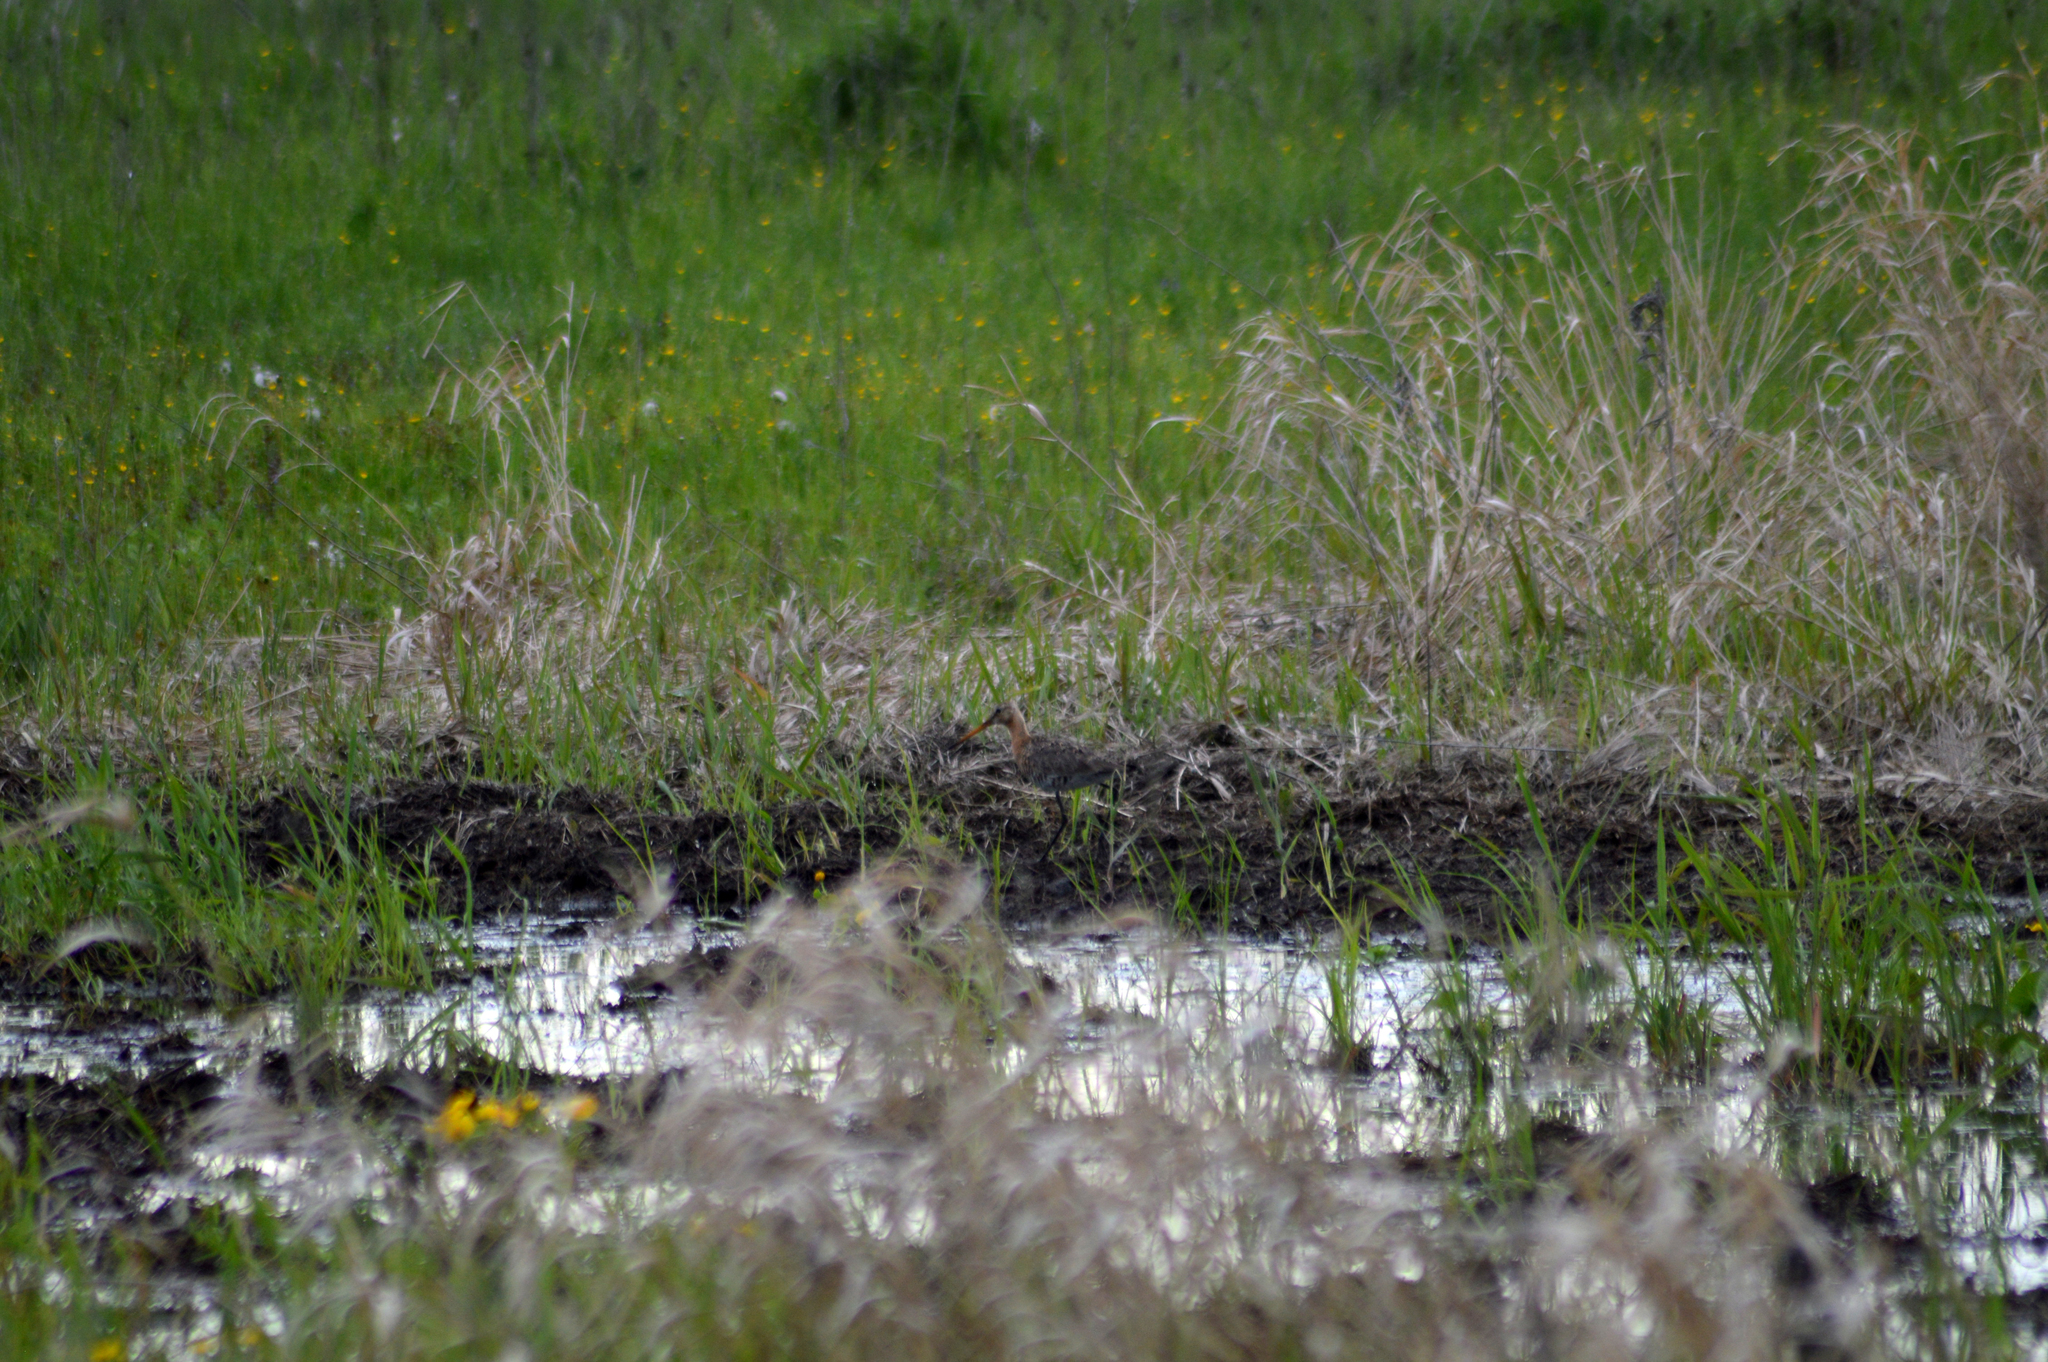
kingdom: Animalia
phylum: Chordata
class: Aves
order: Charadriiformes
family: Scolopacidae
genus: Limosa
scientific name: Limosa limosa
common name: Black-tailed godwit
